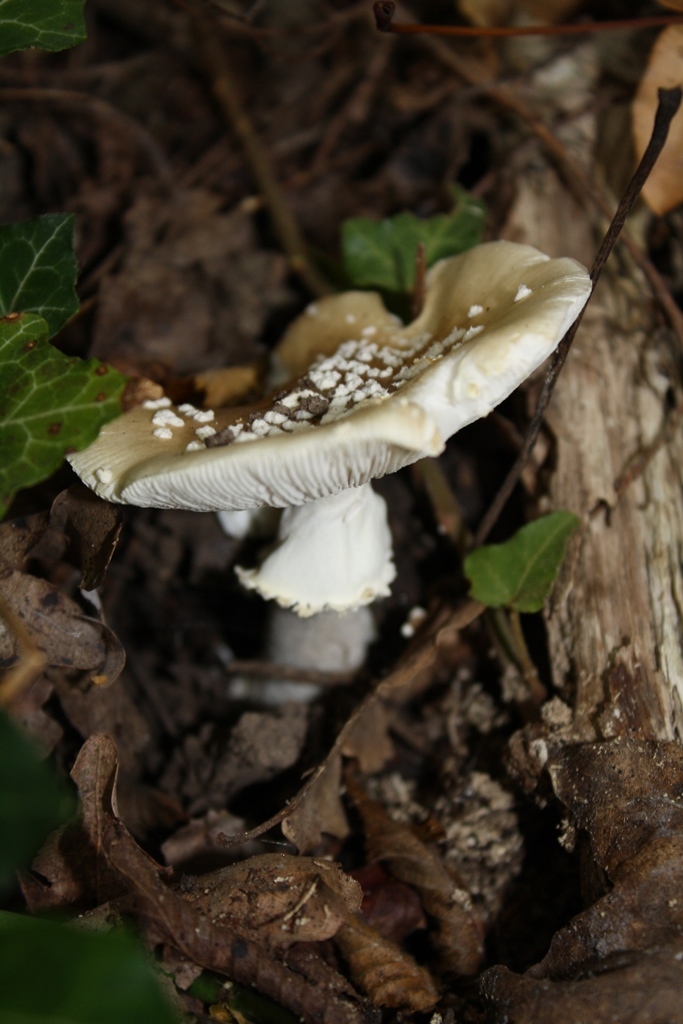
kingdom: Fungi
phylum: Basidiomycota
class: Agaricomycetes
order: Agaricales
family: Amanitaceae
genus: Amanita
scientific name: Amanita pantherina
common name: Panthercap
